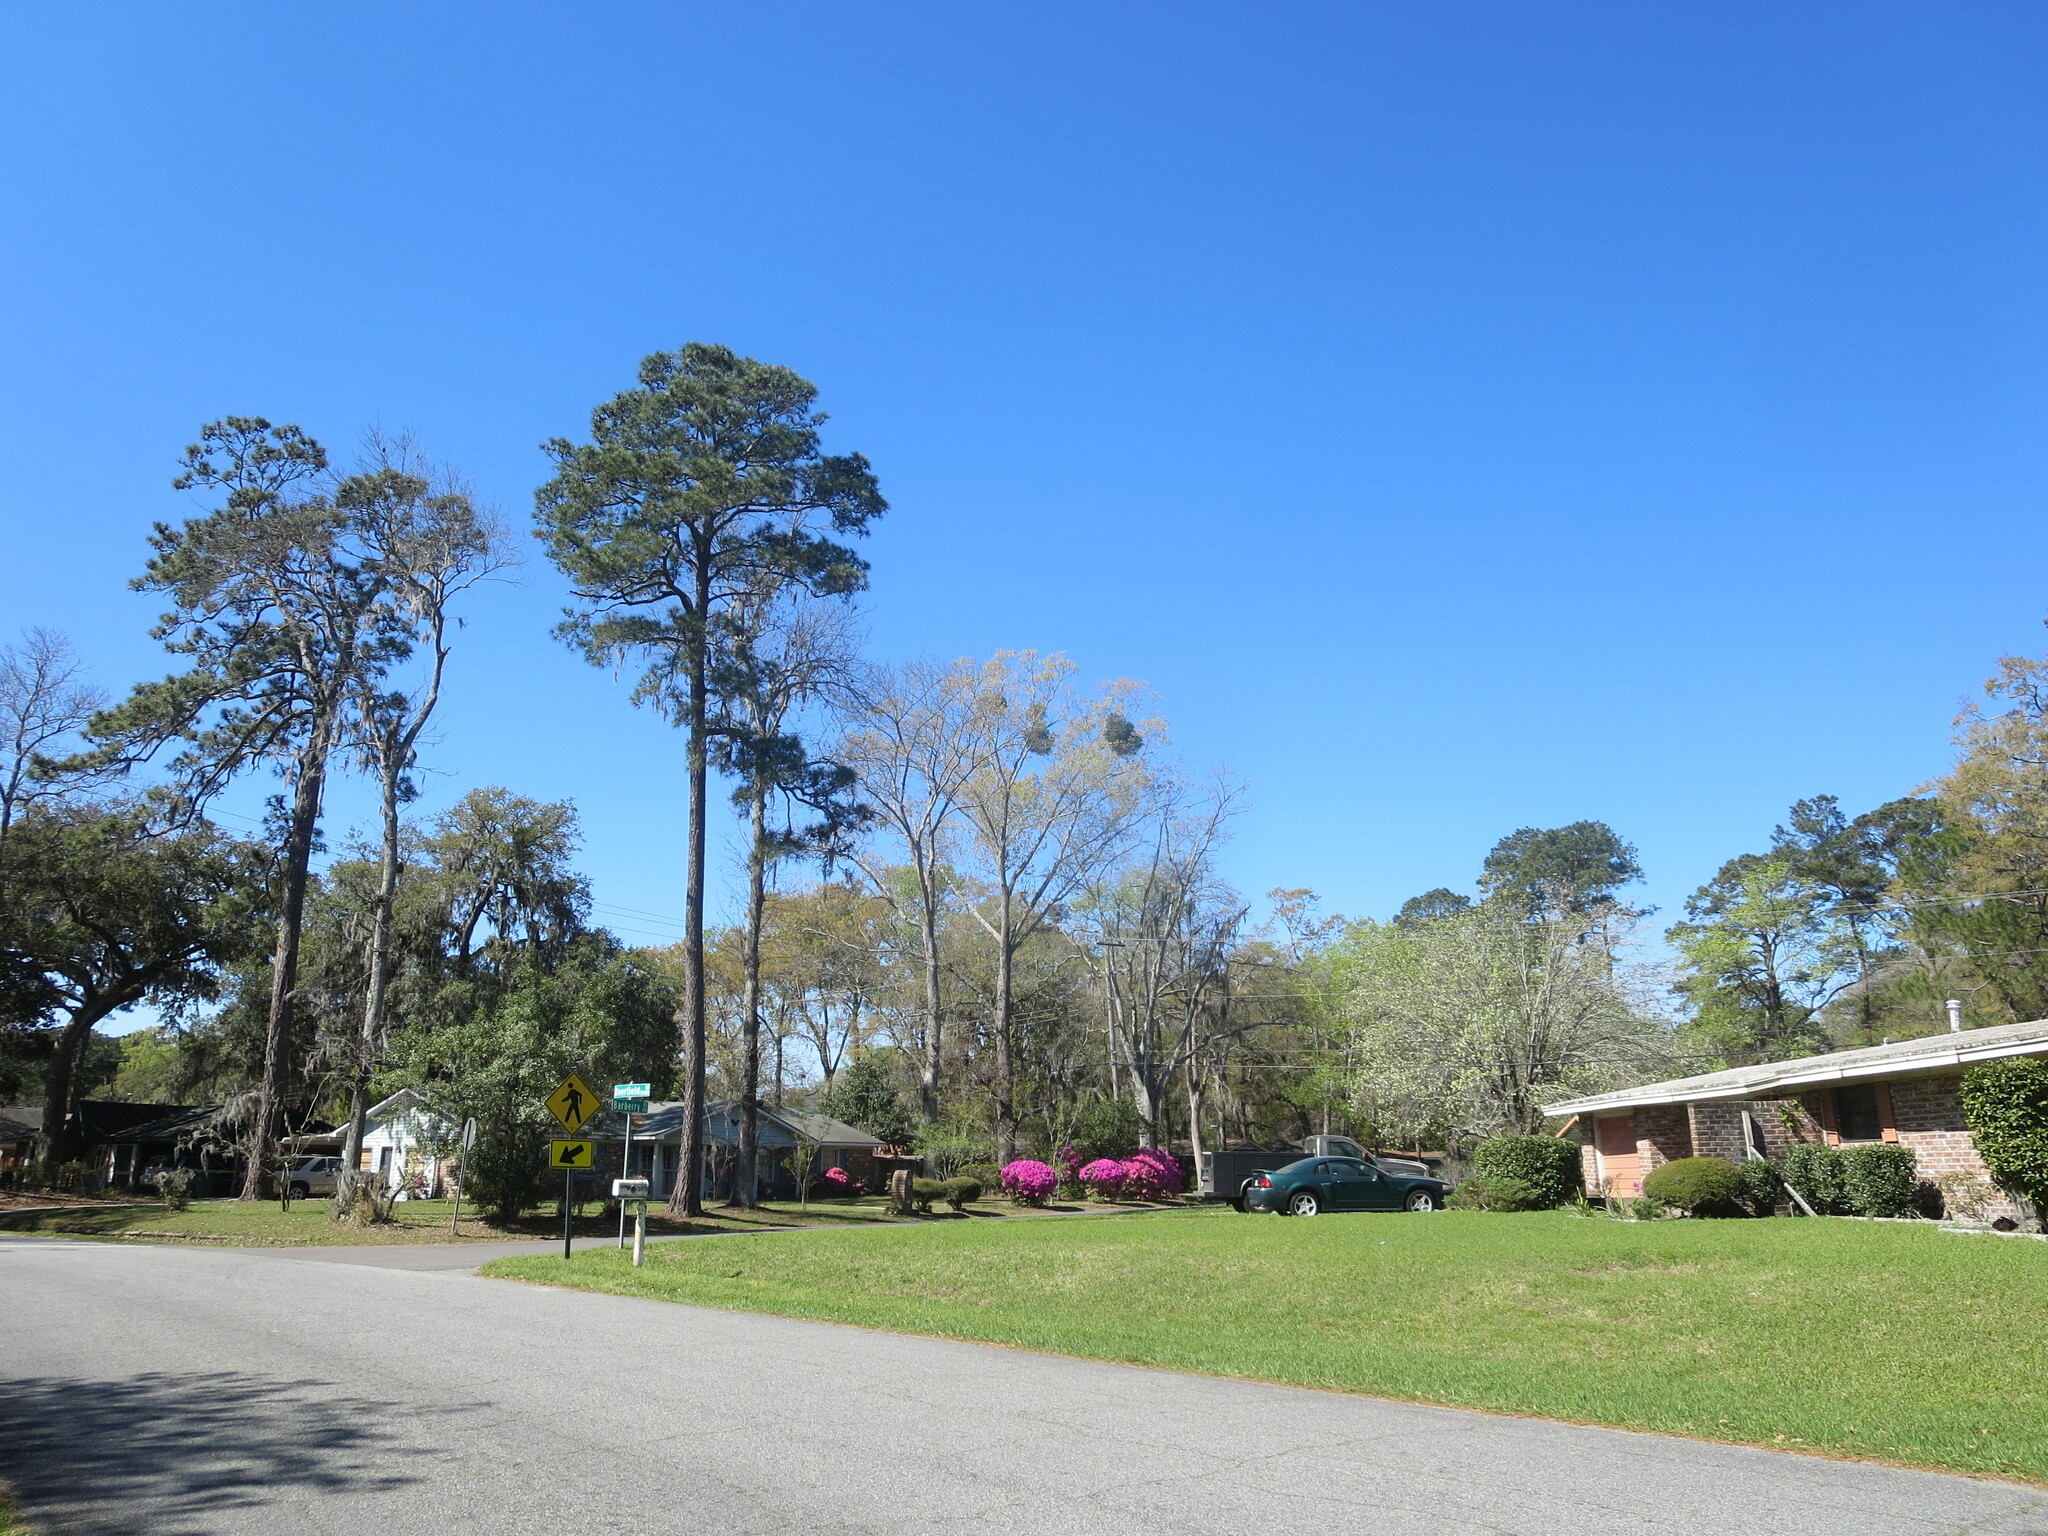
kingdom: Plantae
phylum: Tracheophyta
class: Magnoliopsida
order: Santalales
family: Viscaceae
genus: Phoradendron
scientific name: Phoradendron leucarpum
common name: Pacific mistletoe
